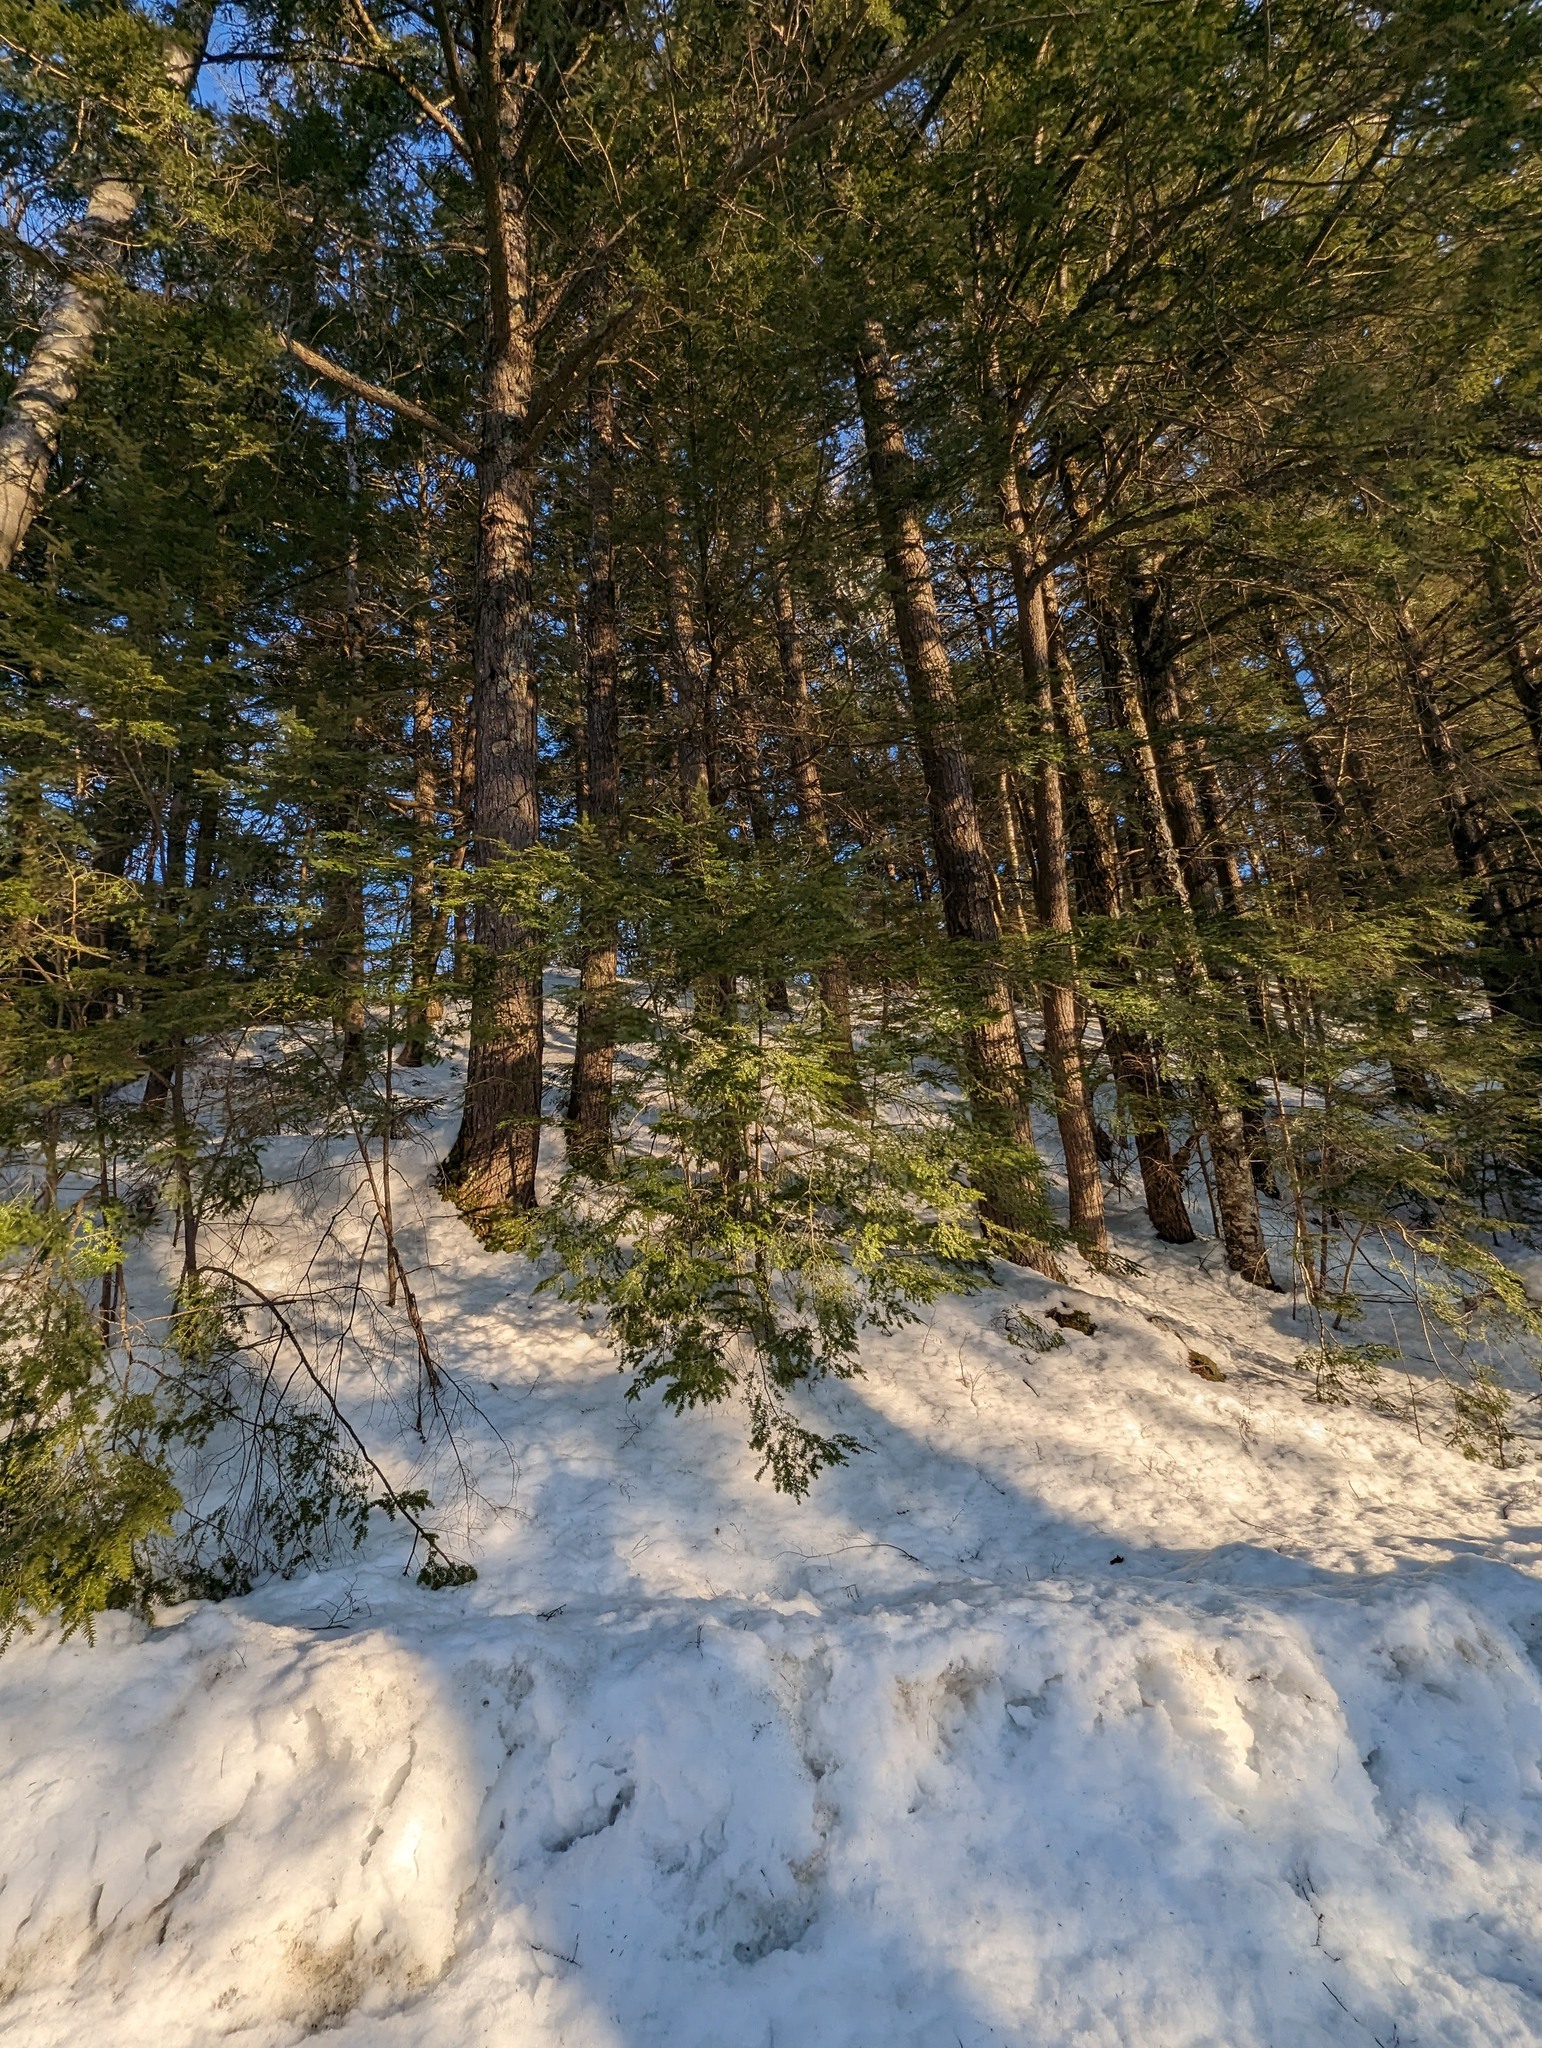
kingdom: Plantae
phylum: Tracheophyta
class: Pinopsida
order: Pinales
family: Pinaceae
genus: Tsuga
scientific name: Tsuga canadensis
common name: Eastern hemlock
